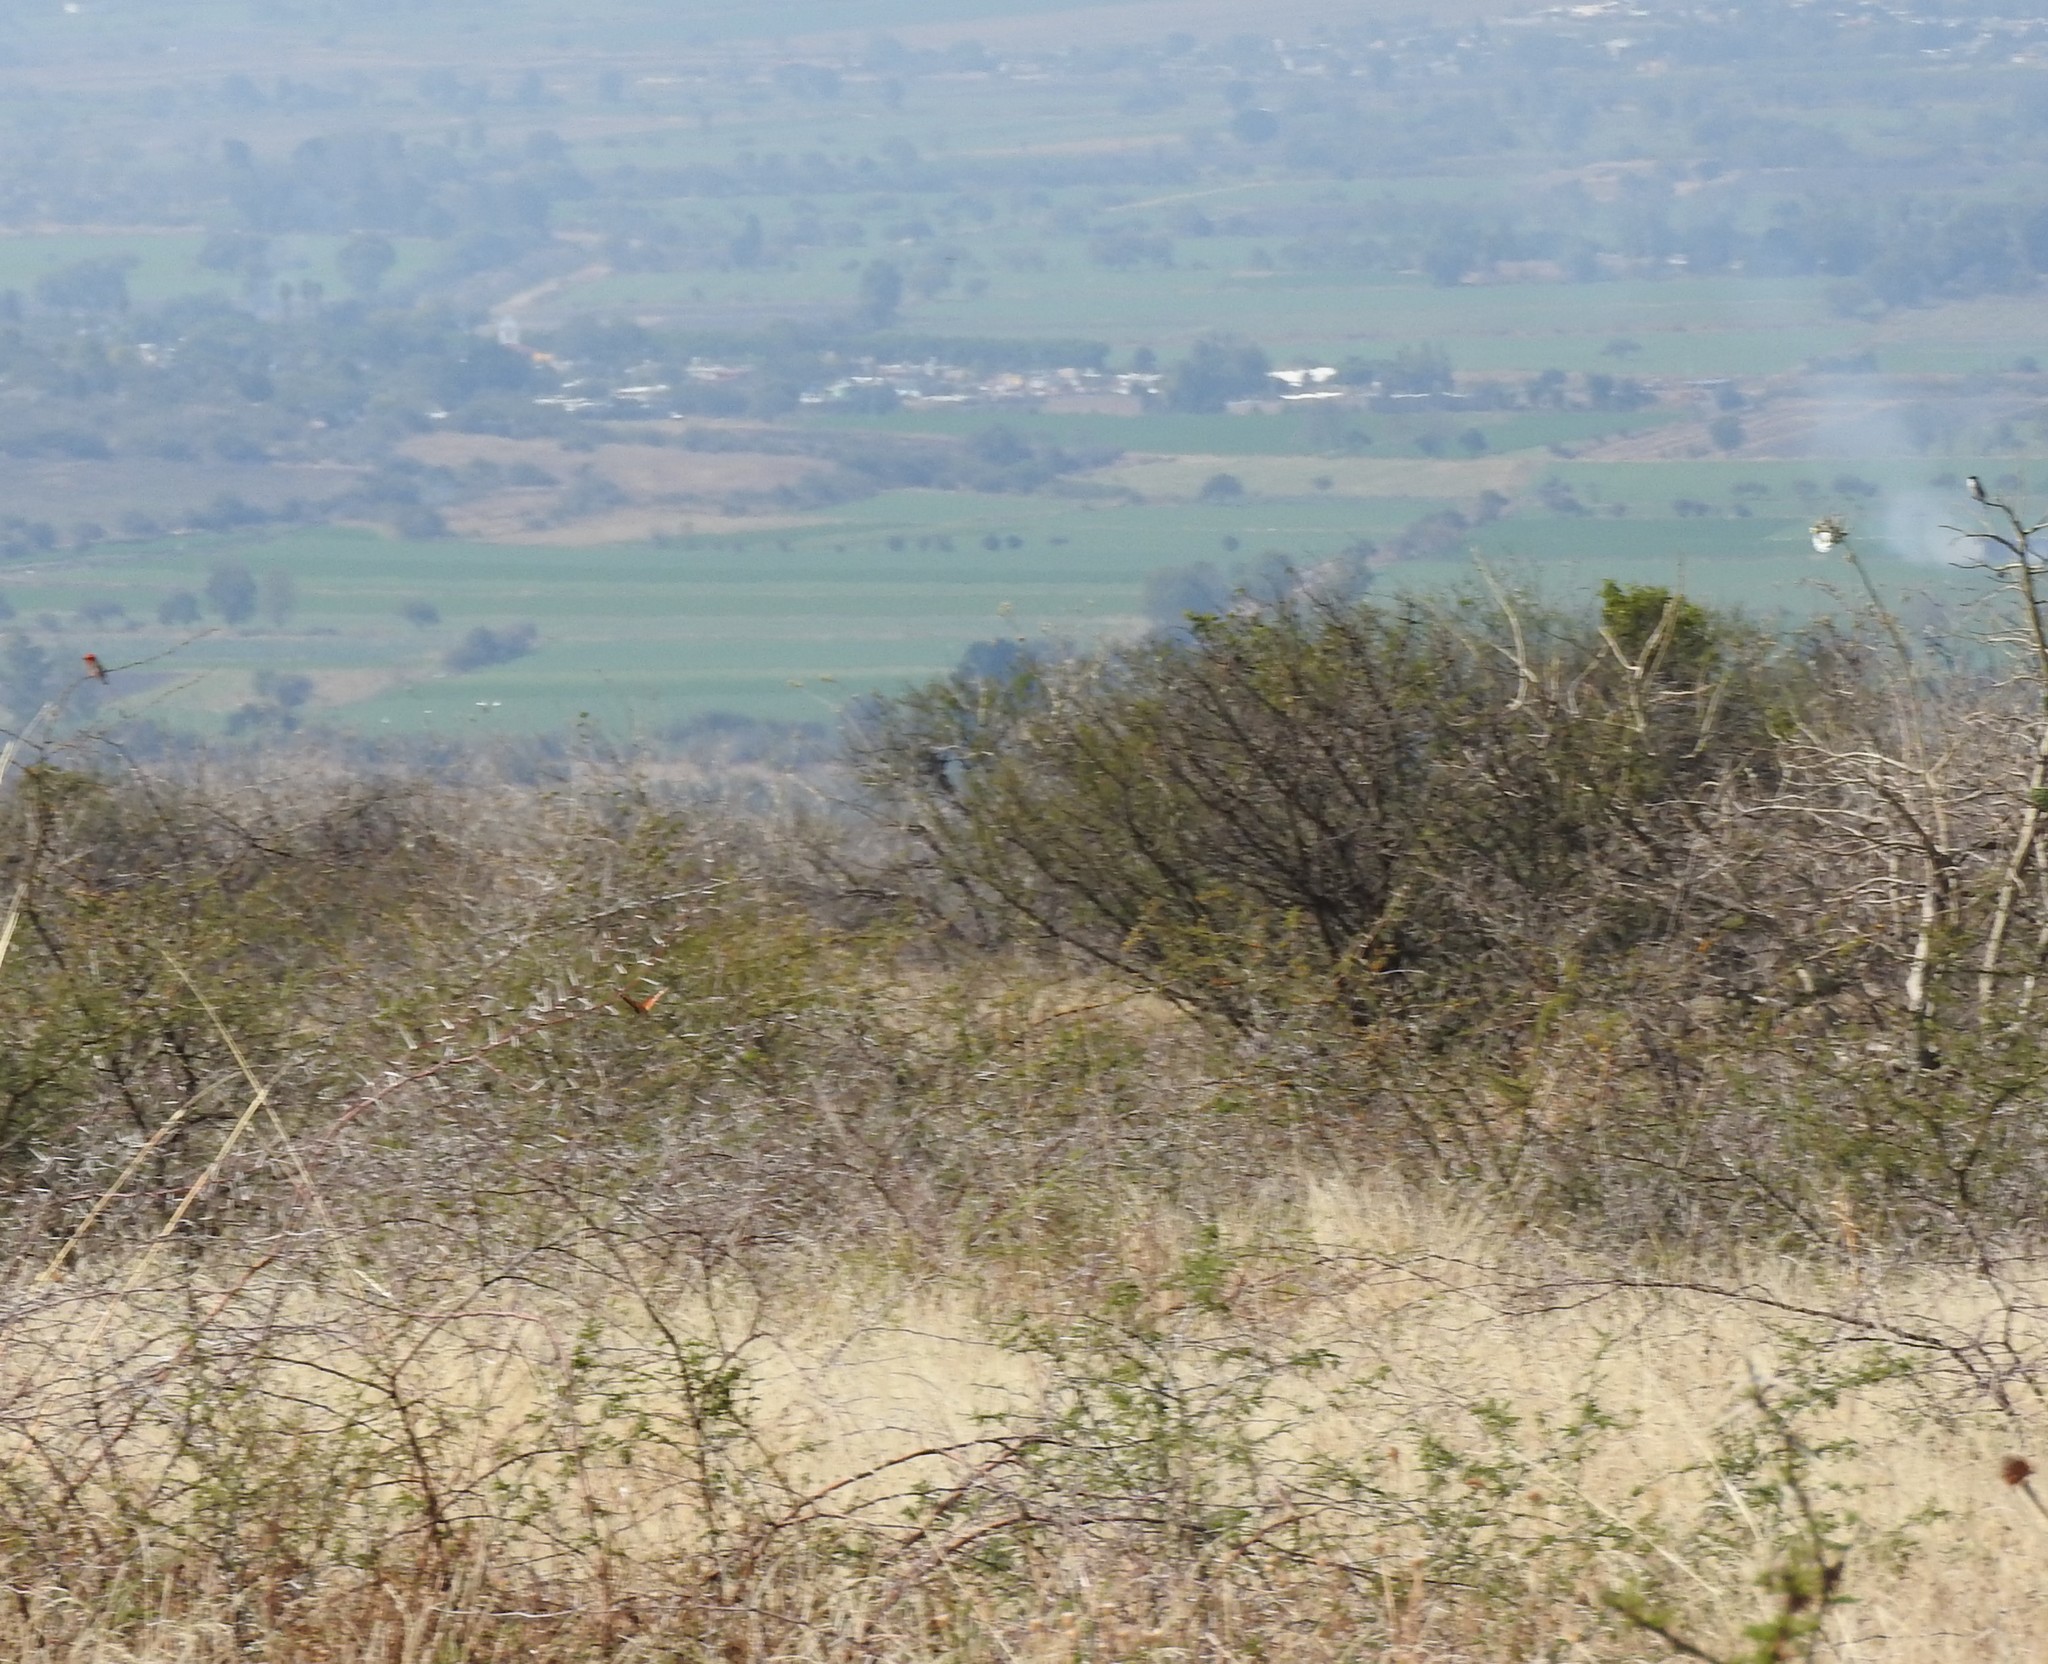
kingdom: Animalia
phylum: Chordata
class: Aves
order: Passeriformes
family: Tyrannidae
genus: Pyrocephalus
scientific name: Pyrocephalus rubinus
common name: Vermilion flycatcher
